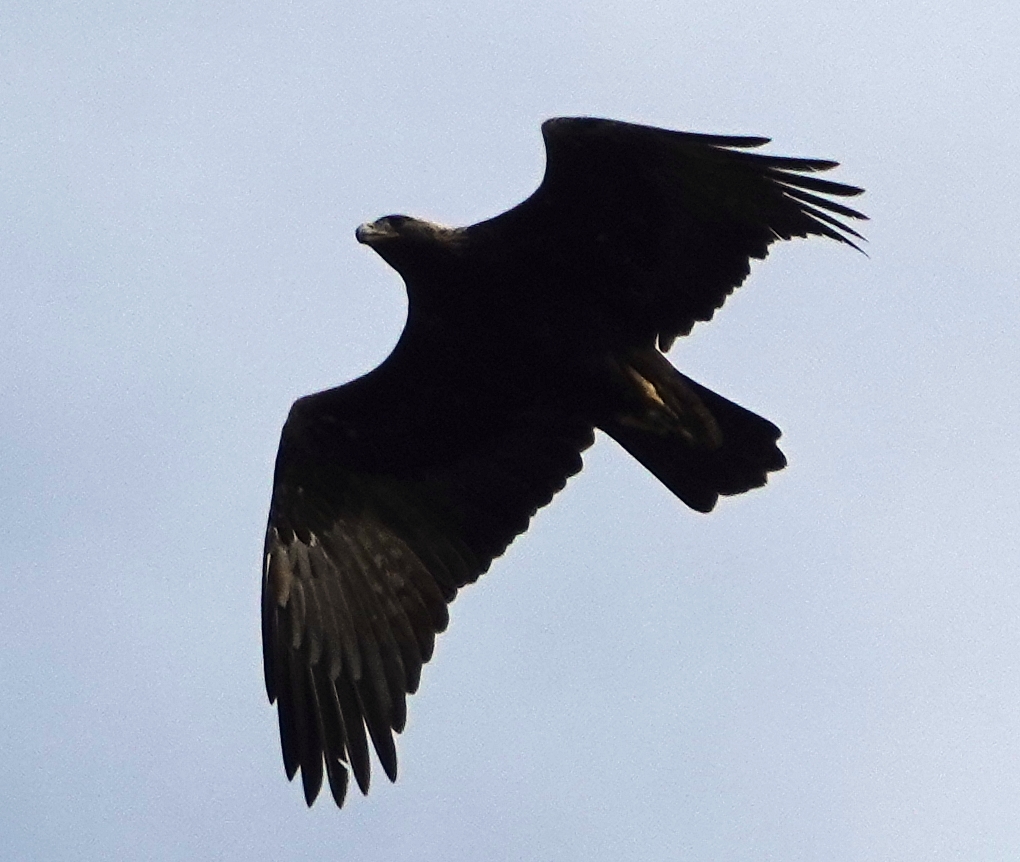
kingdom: Animalia
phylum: Chordata
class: Aves
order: Accipitriformes
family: Accipitridae
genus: Aquila
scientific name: Aquila chrysaetos
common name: Golden eagle
